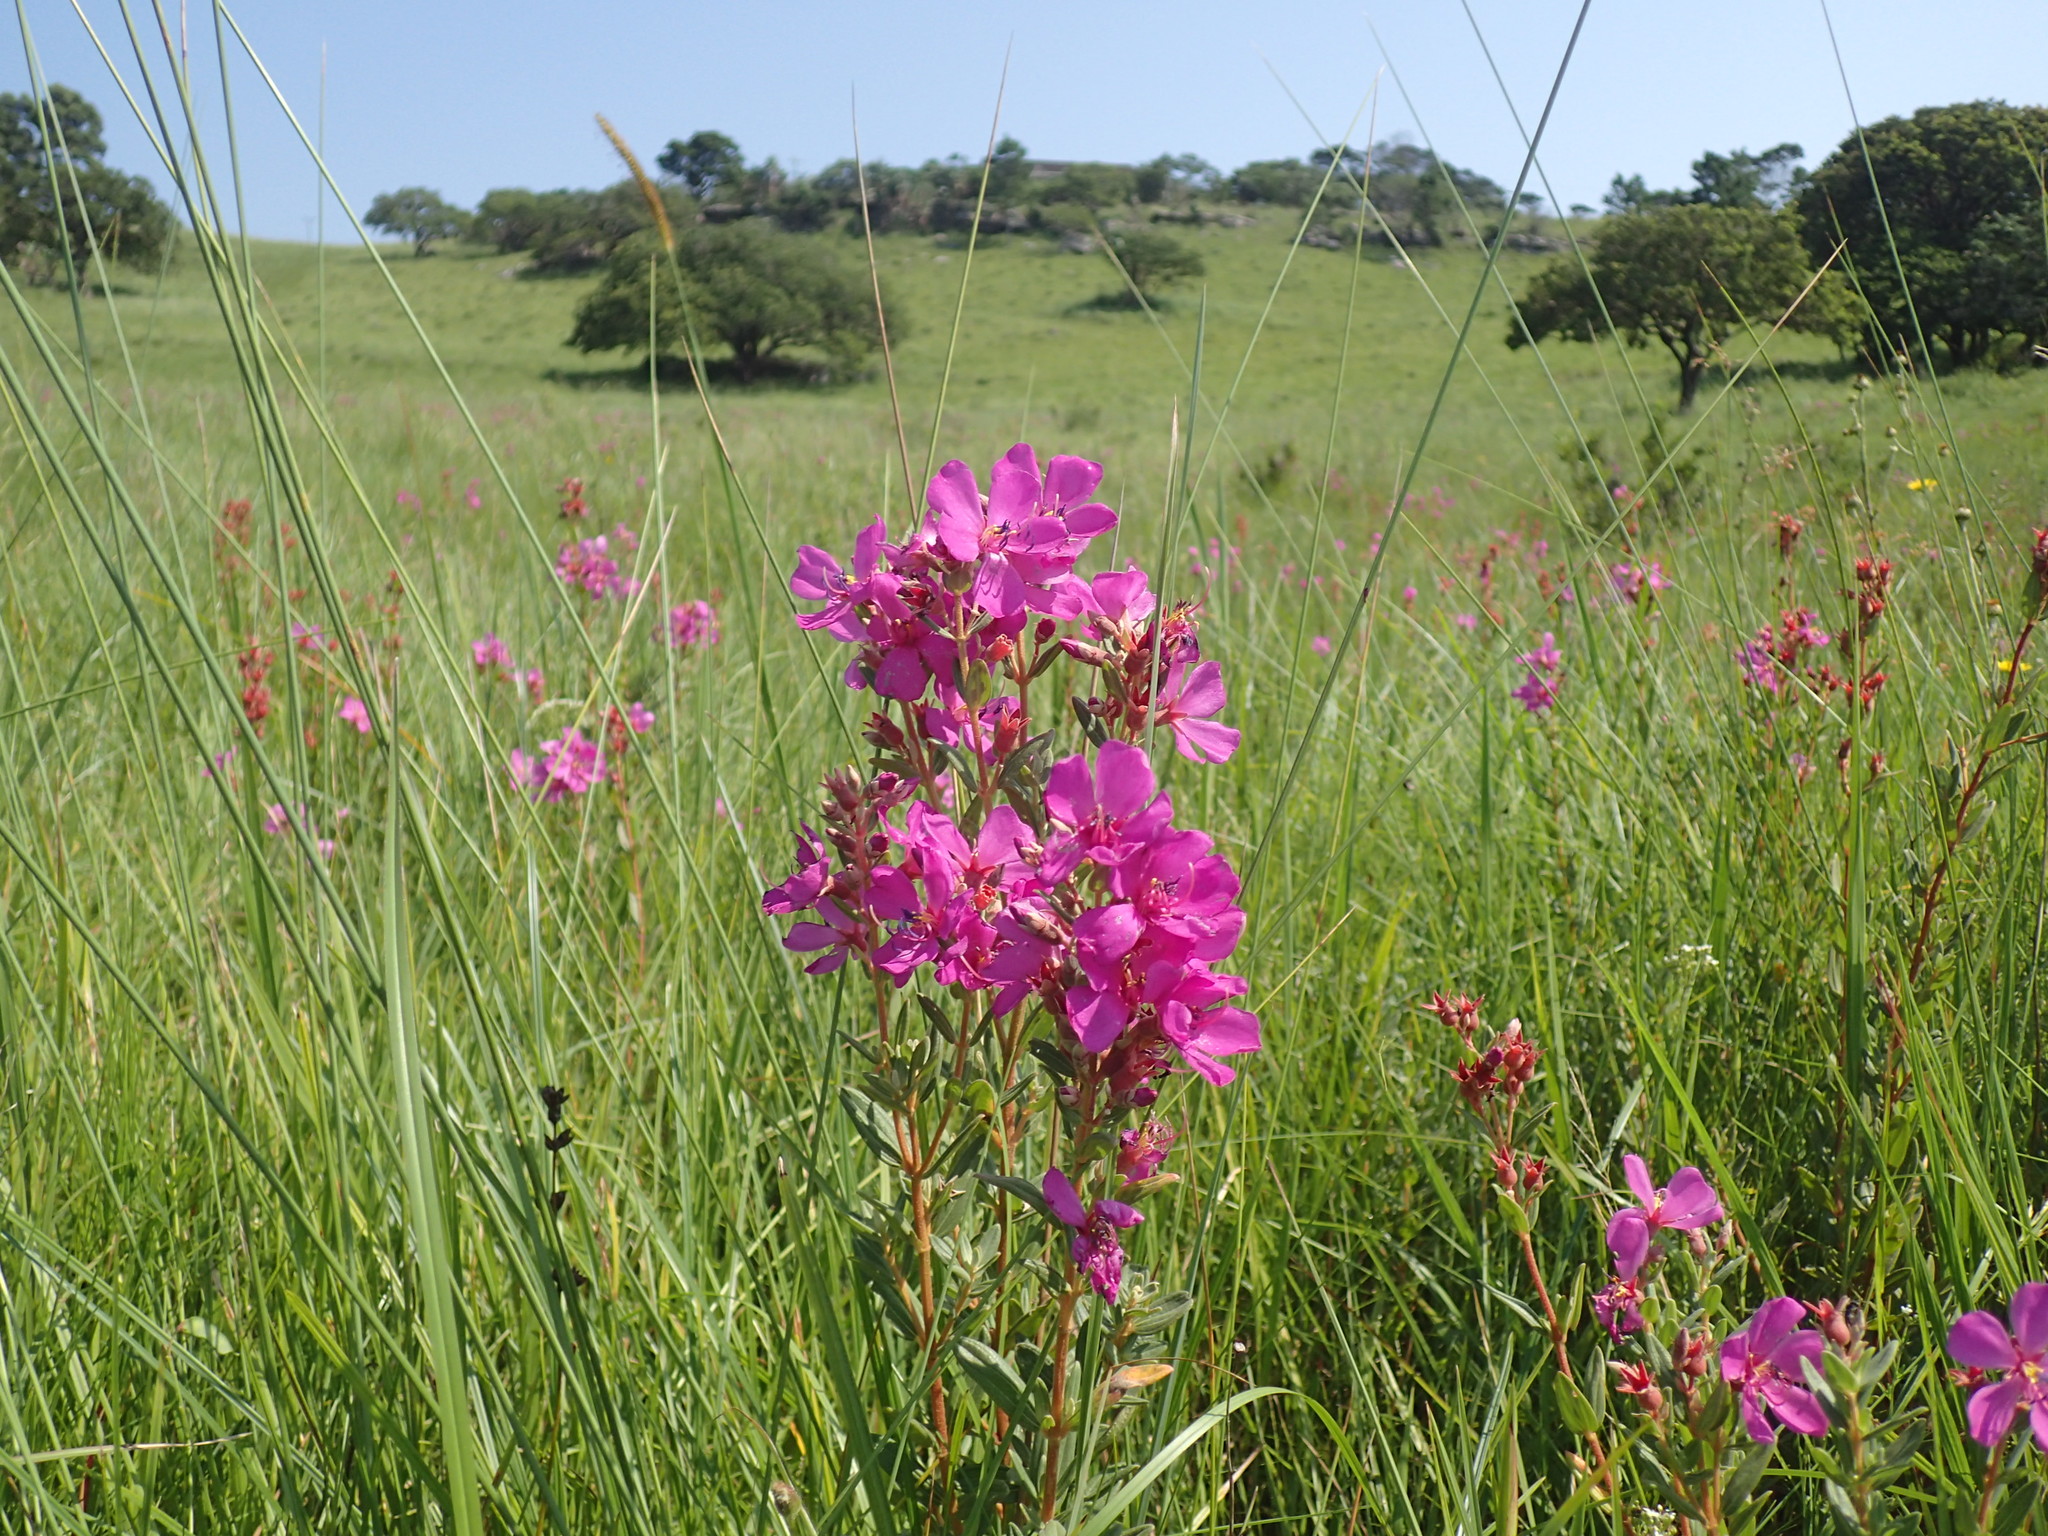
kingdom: Plantae
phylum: Tracheophyta
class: Magnoliopsida
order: Myrtales
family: Melastomataceae
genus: Argyrella
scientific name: Argyrella canescens
